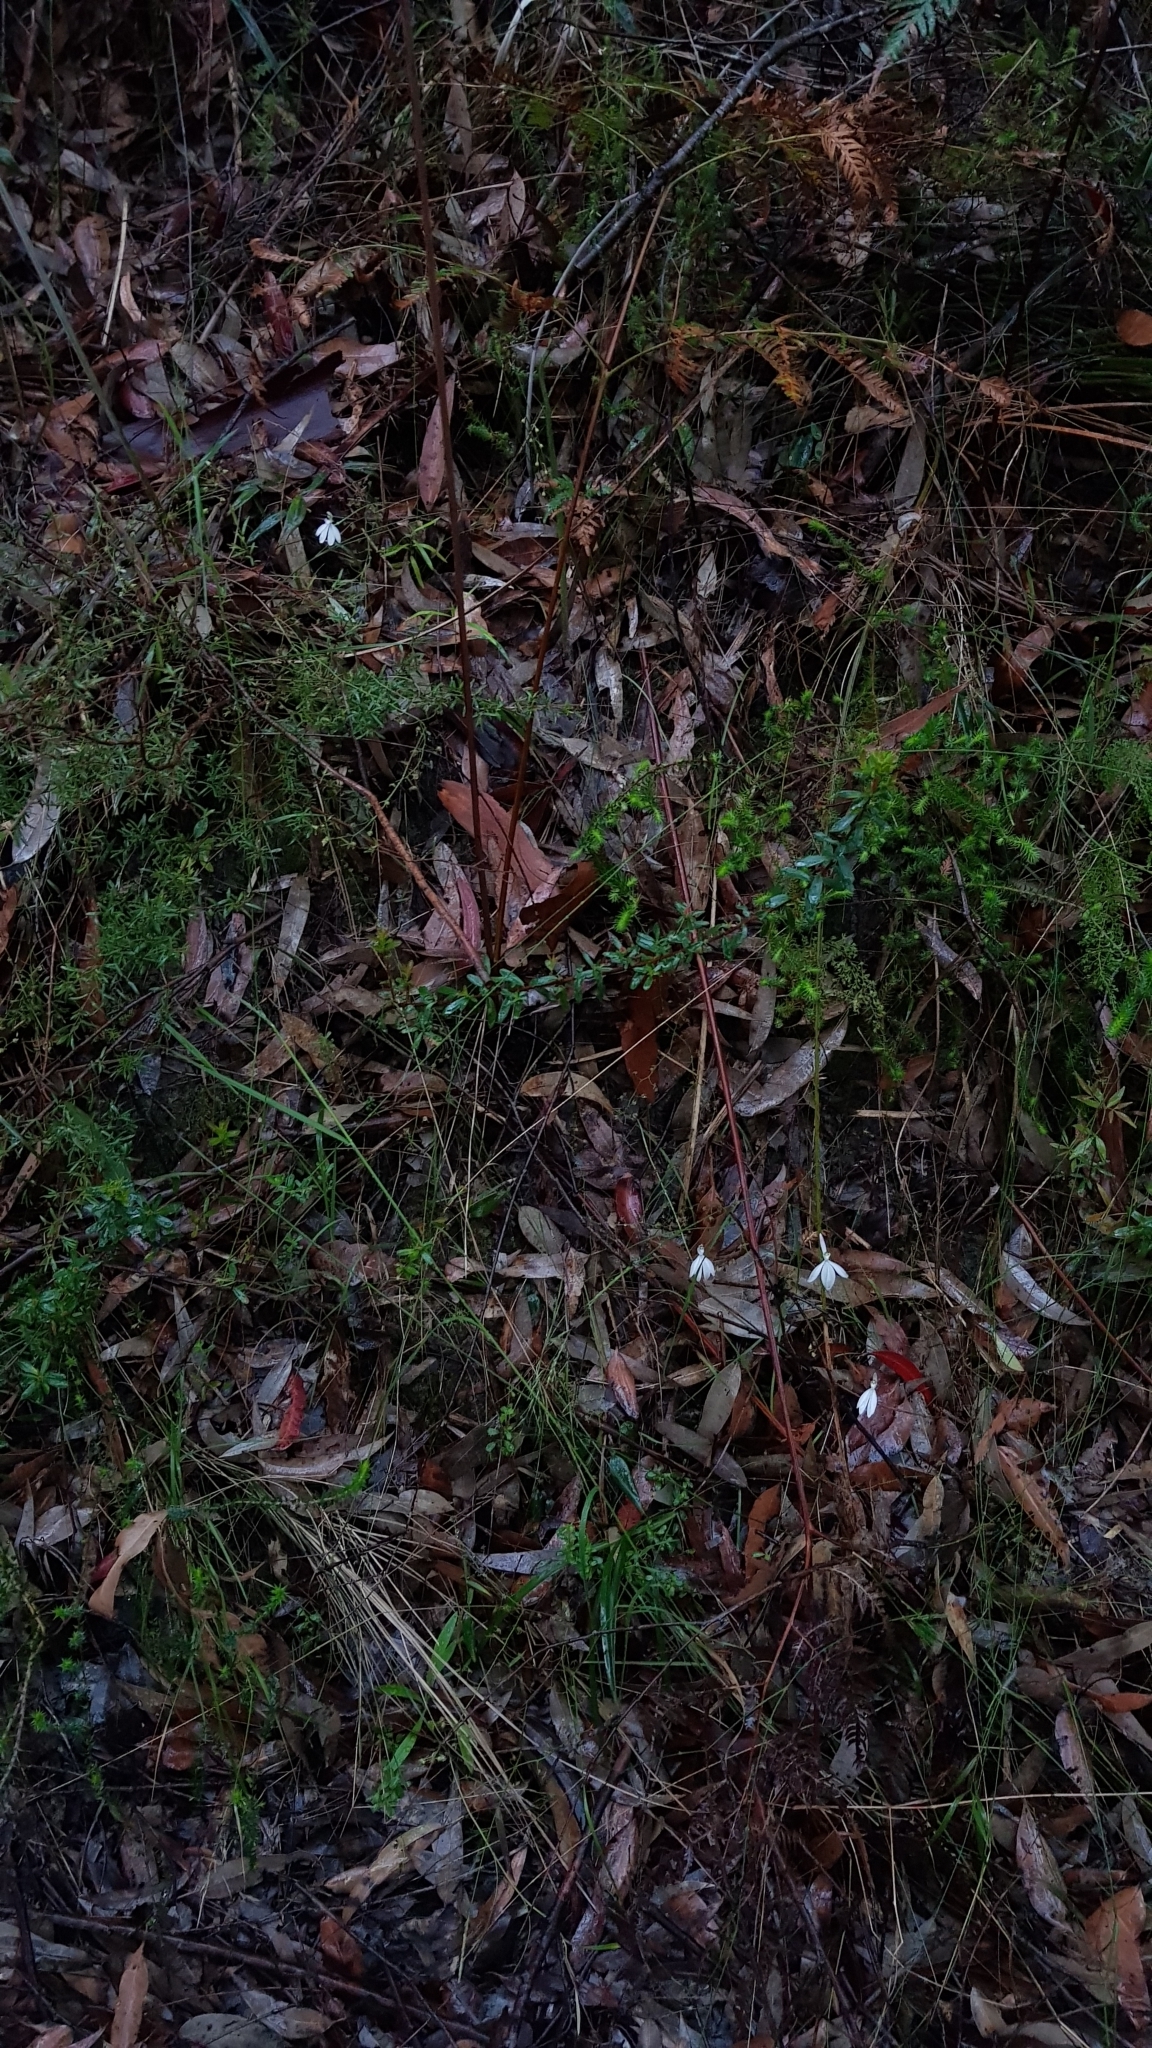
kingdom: Plantae
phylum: Tracheophyta
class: Liliopsida
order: Asparagales
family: Orchidaceae
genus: Caladenia
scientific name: Caladenia catenata
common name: White caladenia
